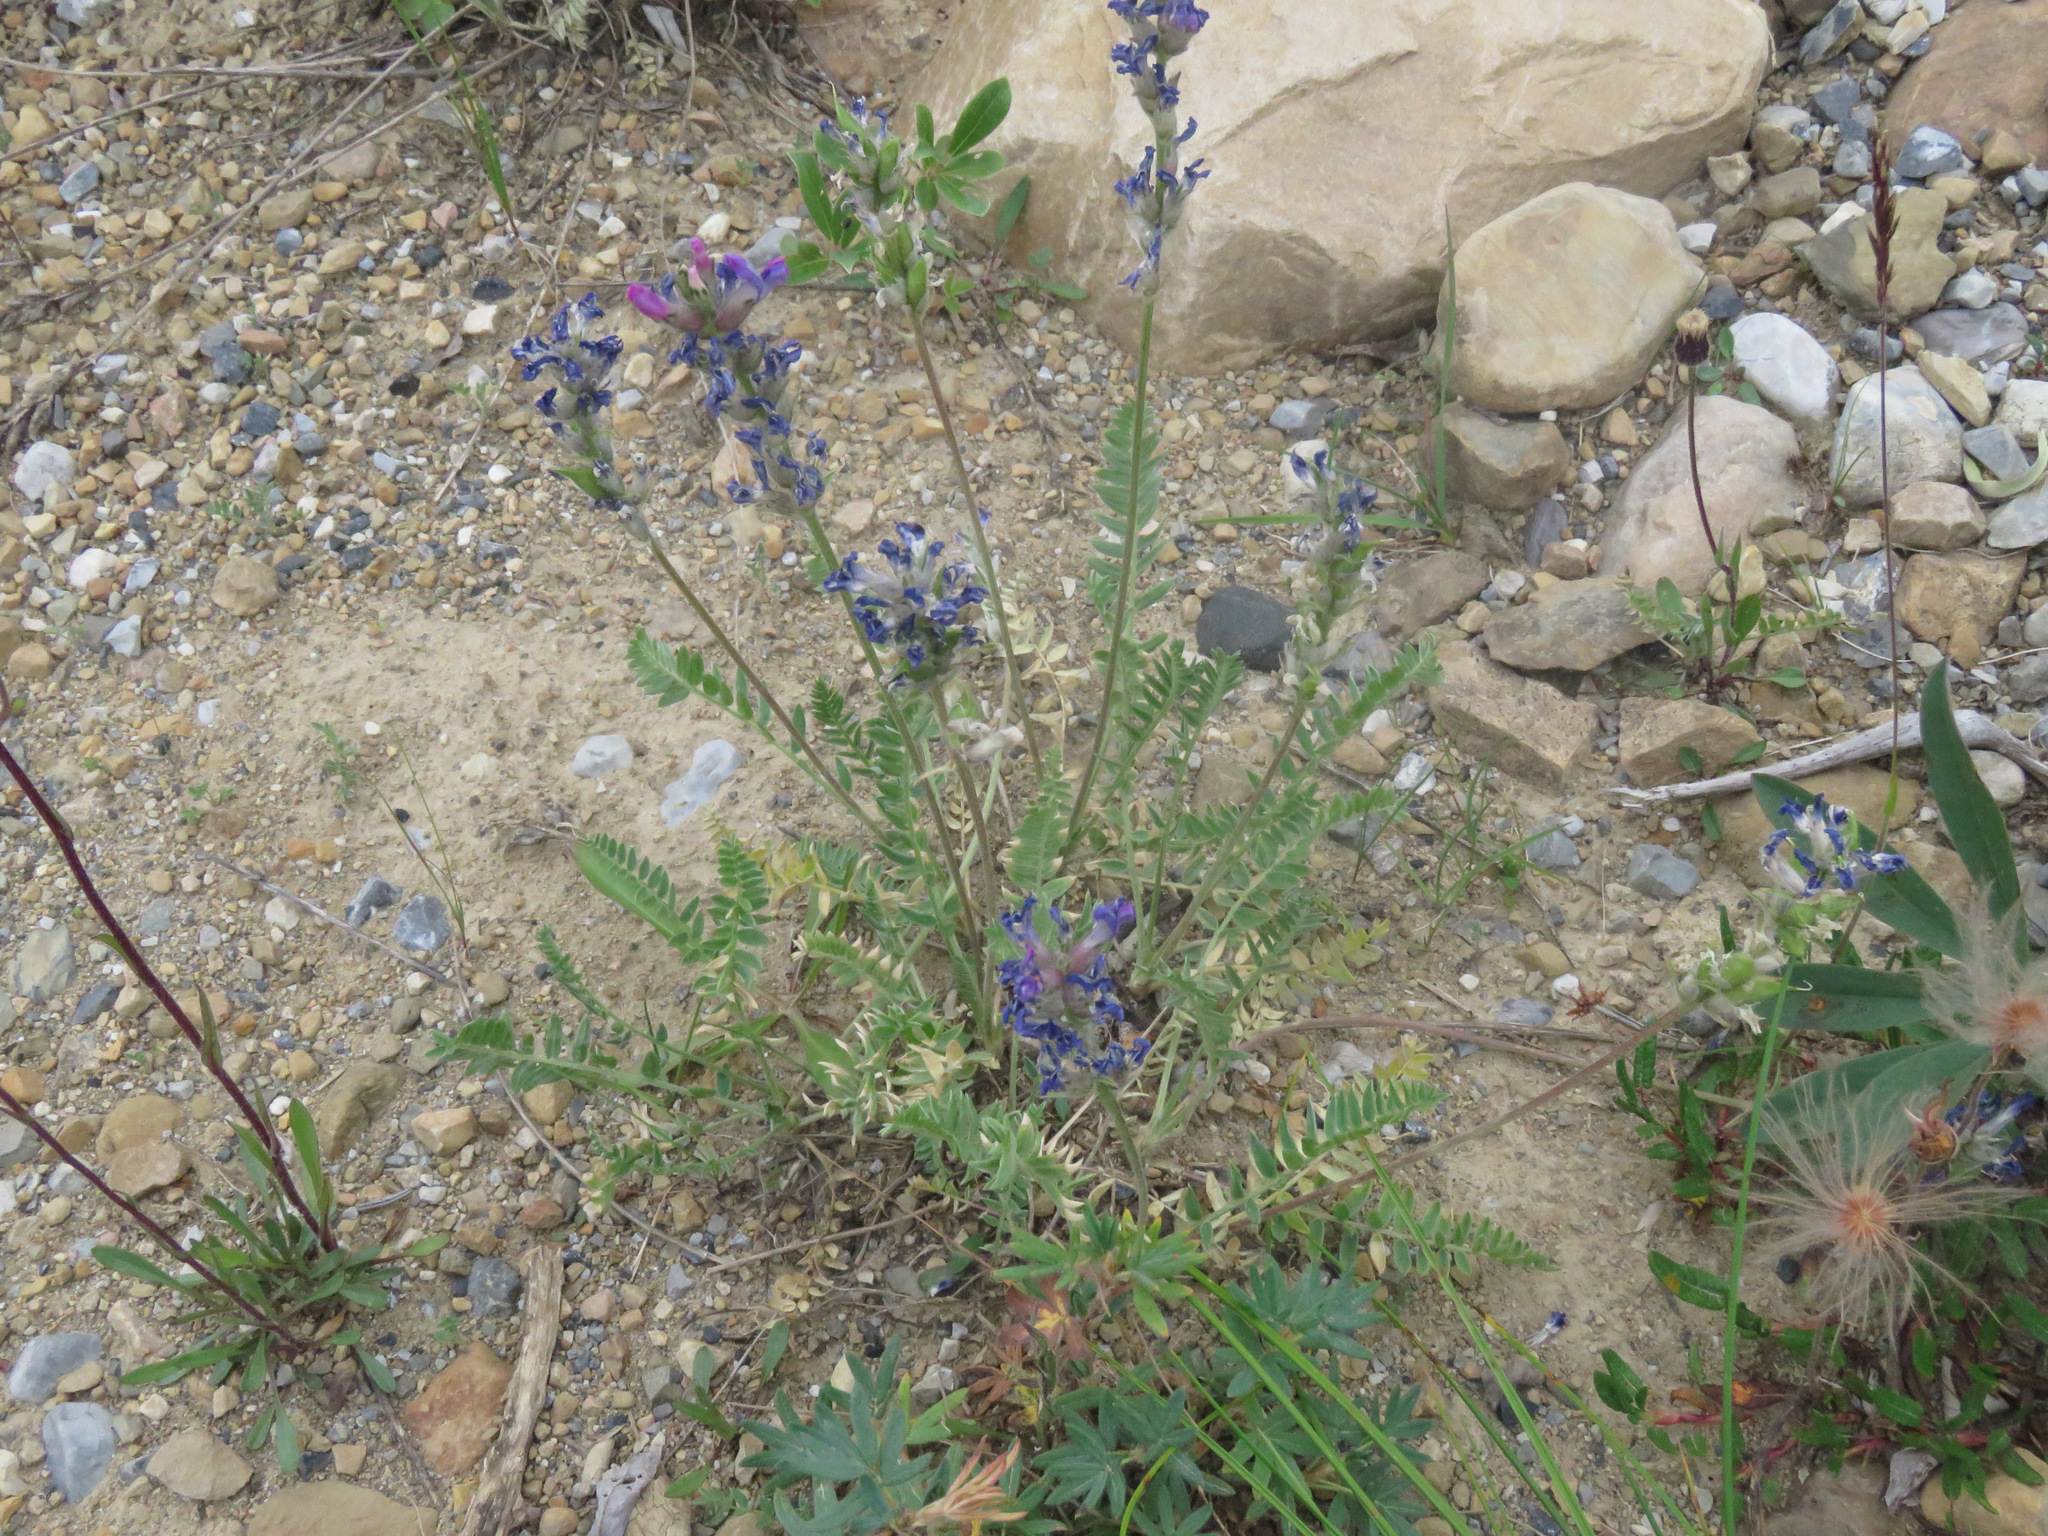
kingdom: Plantae
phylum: Tracheophyta
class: Magnoliopsida
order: Fabales
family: Fabaceae
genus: Oxytropis
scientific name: Oxytropis jordalii
